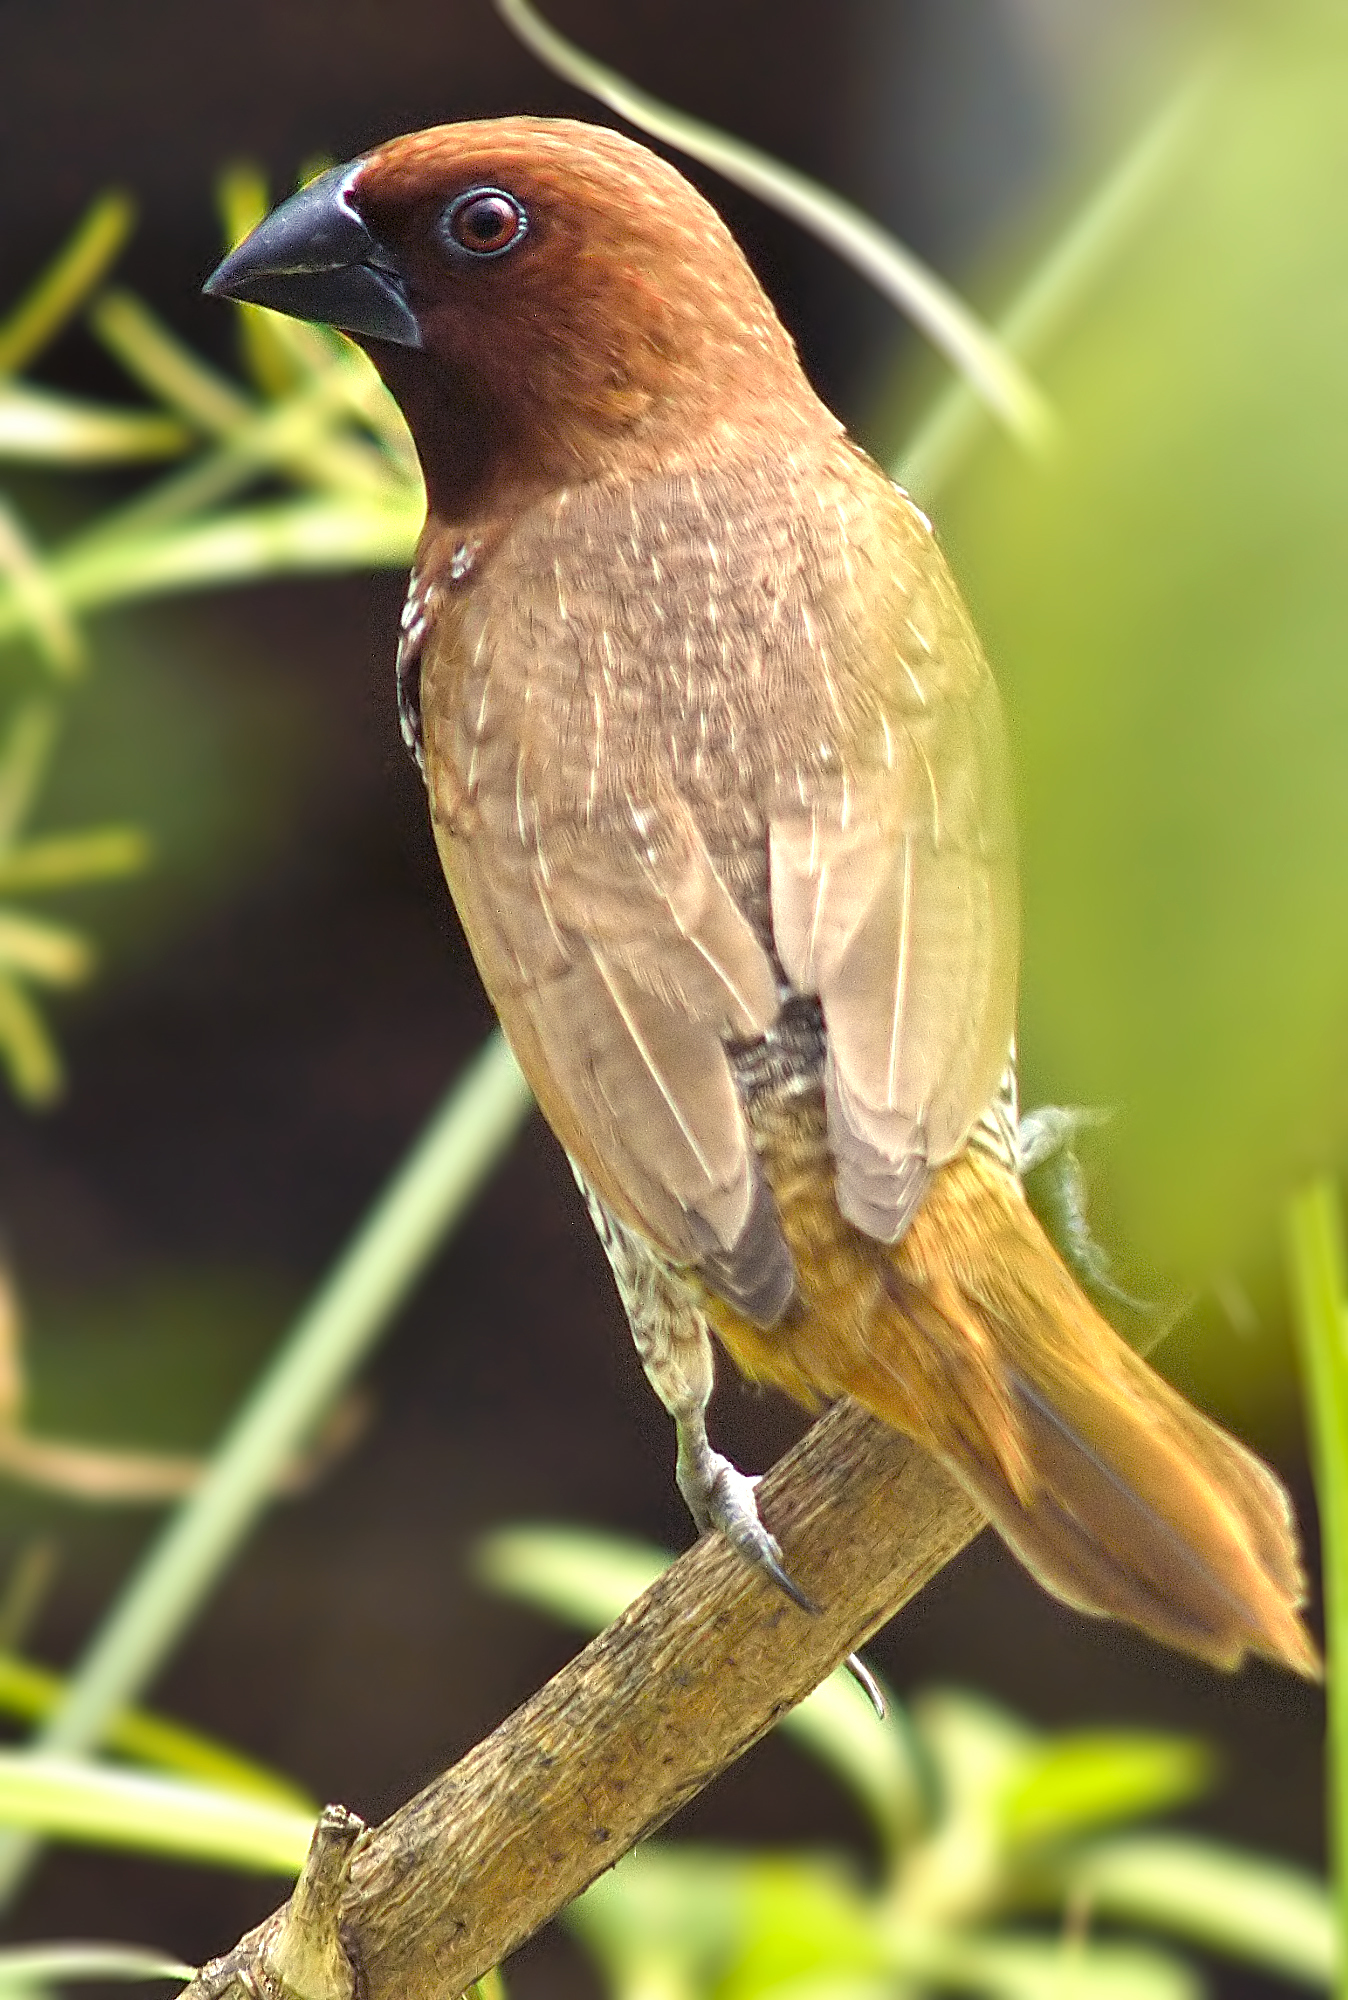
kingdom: Animalia
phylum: Chordata
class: Aves
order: Passeriformes
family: Estrildidae
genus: Lonchura
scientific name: Lonchura punctulata
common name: Scaly-breasted munia
